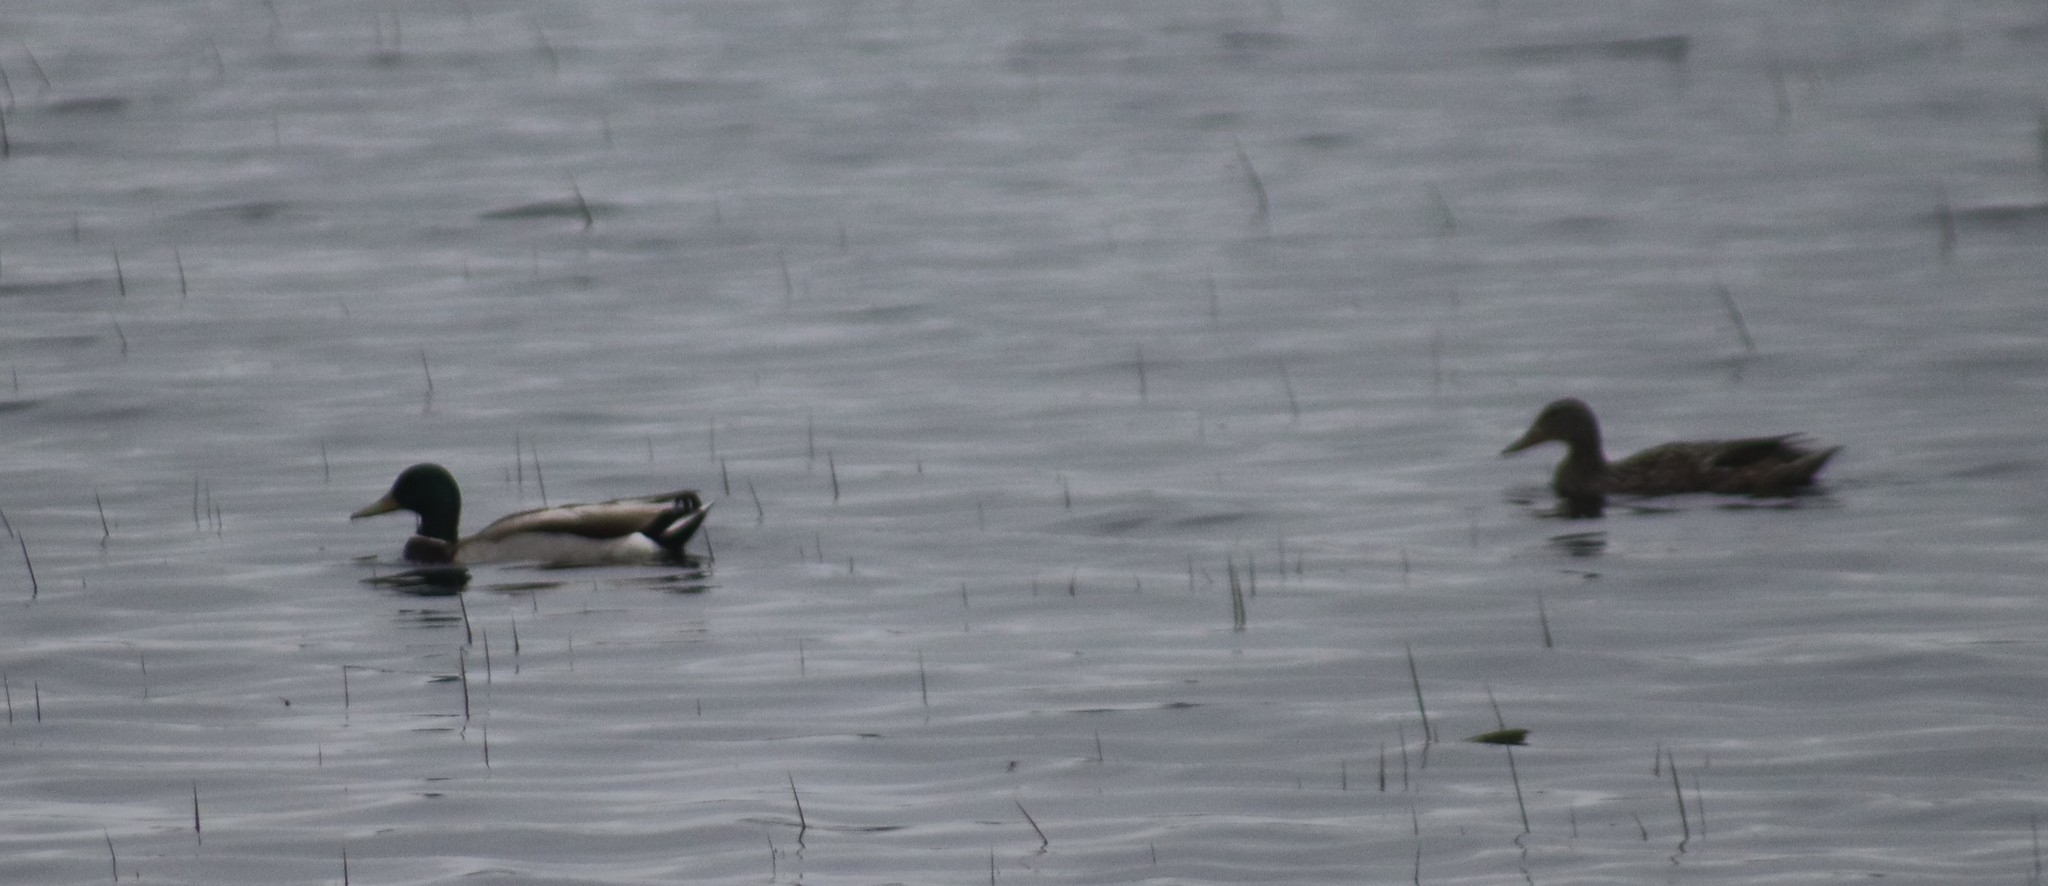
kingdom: Animalia
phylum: Chordata
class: Aves
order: Anseriformes
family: Anatidae
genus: Anas
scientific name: Anas platyrhynchos
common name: Mallard
